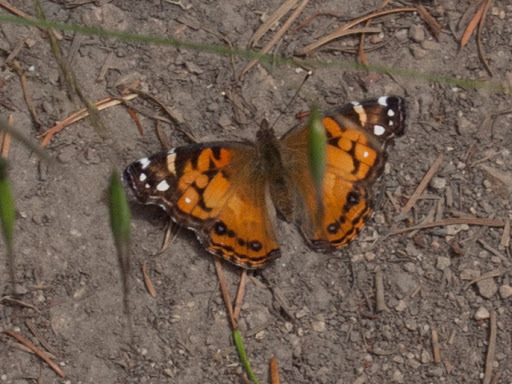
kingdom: Animalia
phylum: Arthropoda
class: Insecta
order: Lepidoptera
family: Nymphalidae
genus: Vanessa
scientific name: Vanessa virginiensis
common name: American lady
